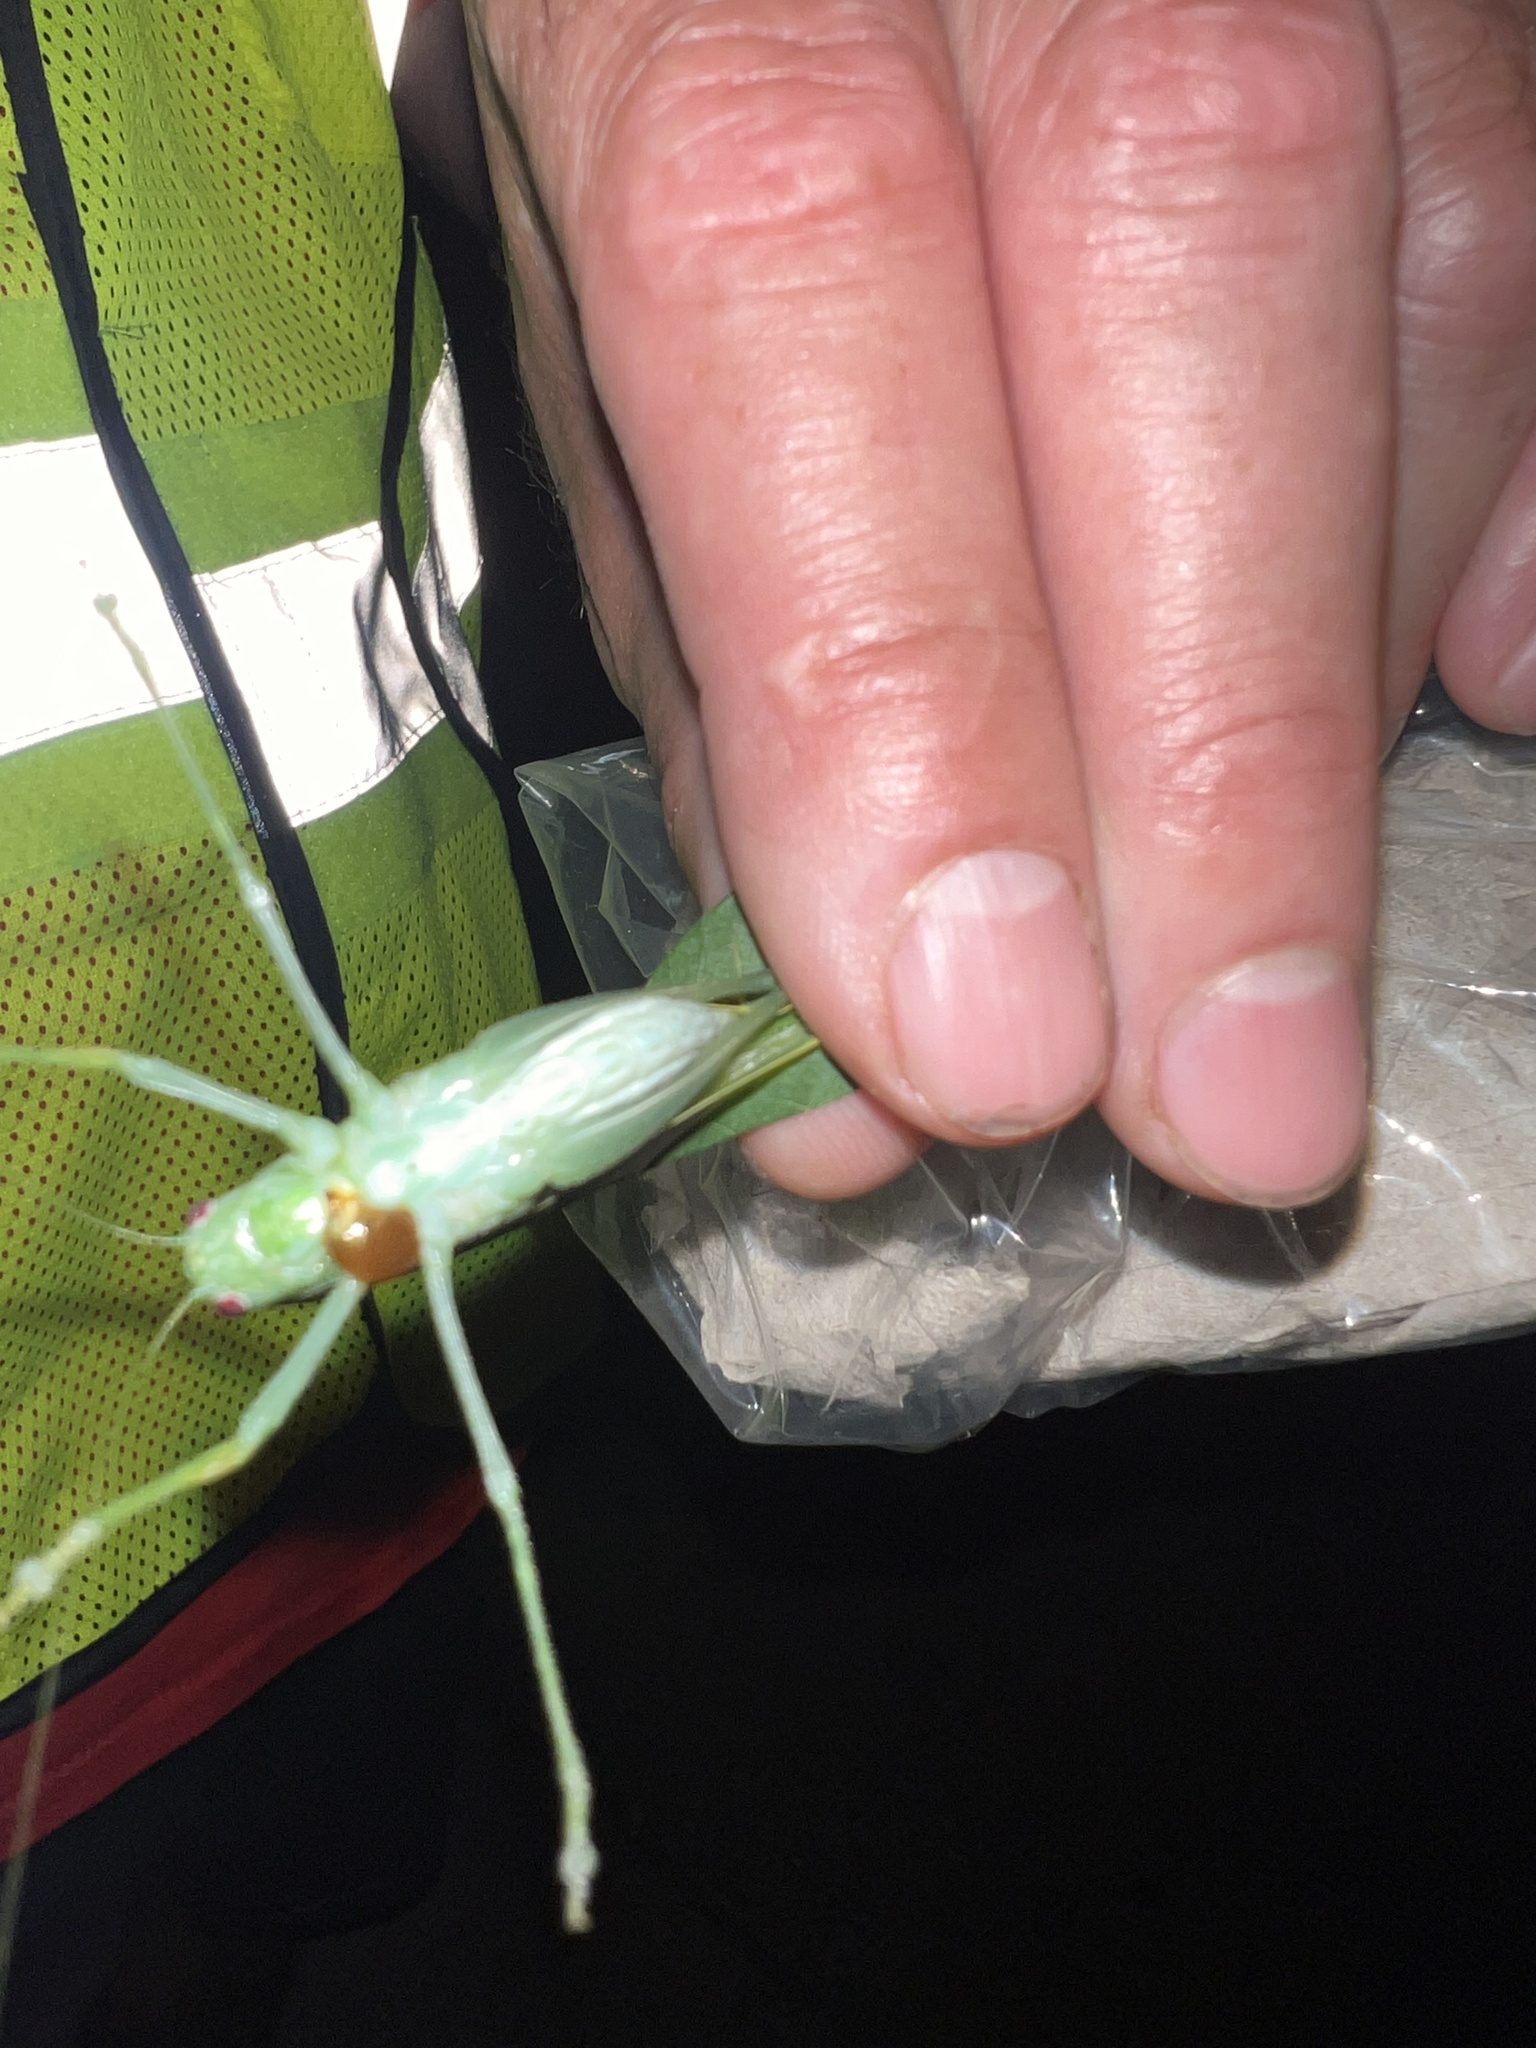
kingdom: Animalia
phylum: Arthropoda
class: Insecta
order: Orthoptera
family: Tettigoniidae
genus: Microcentrum
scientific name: Microcentrum rhombifolium
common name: Broad-winged katydid
